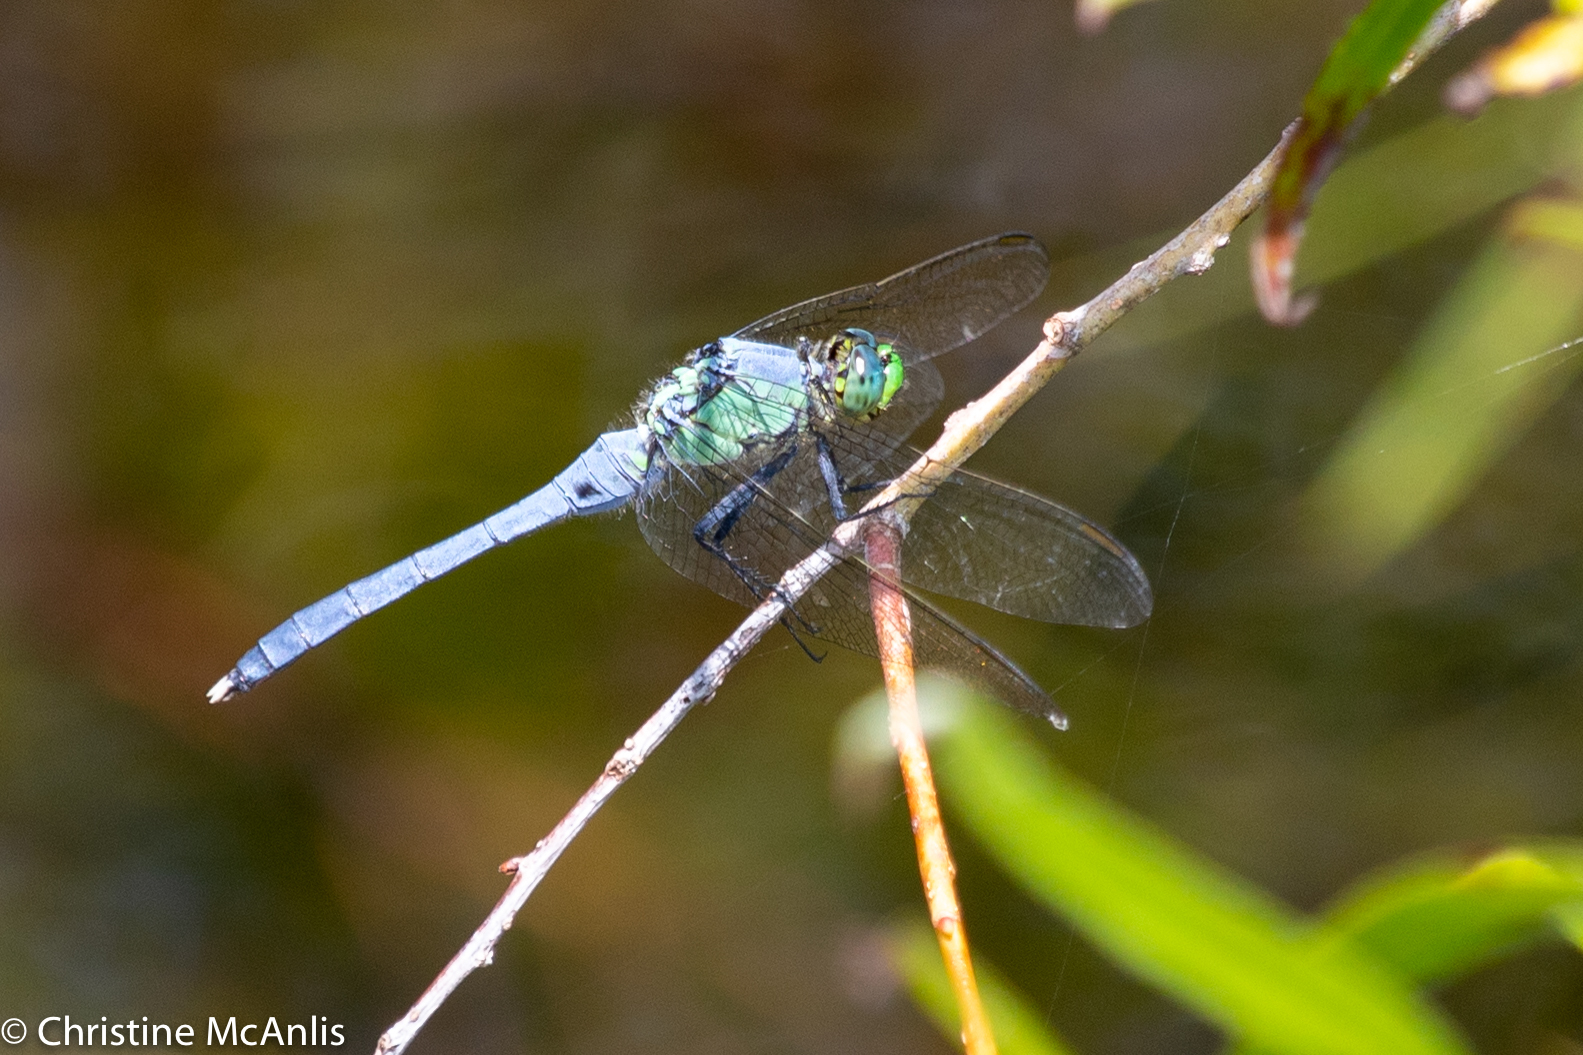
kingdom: Animalia
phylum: Arthropoda
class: Insecta
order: Odonata
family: Libellulidae
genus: Erythemis
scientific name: Erythemis simplicicollis
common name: Eastern pondhawk
